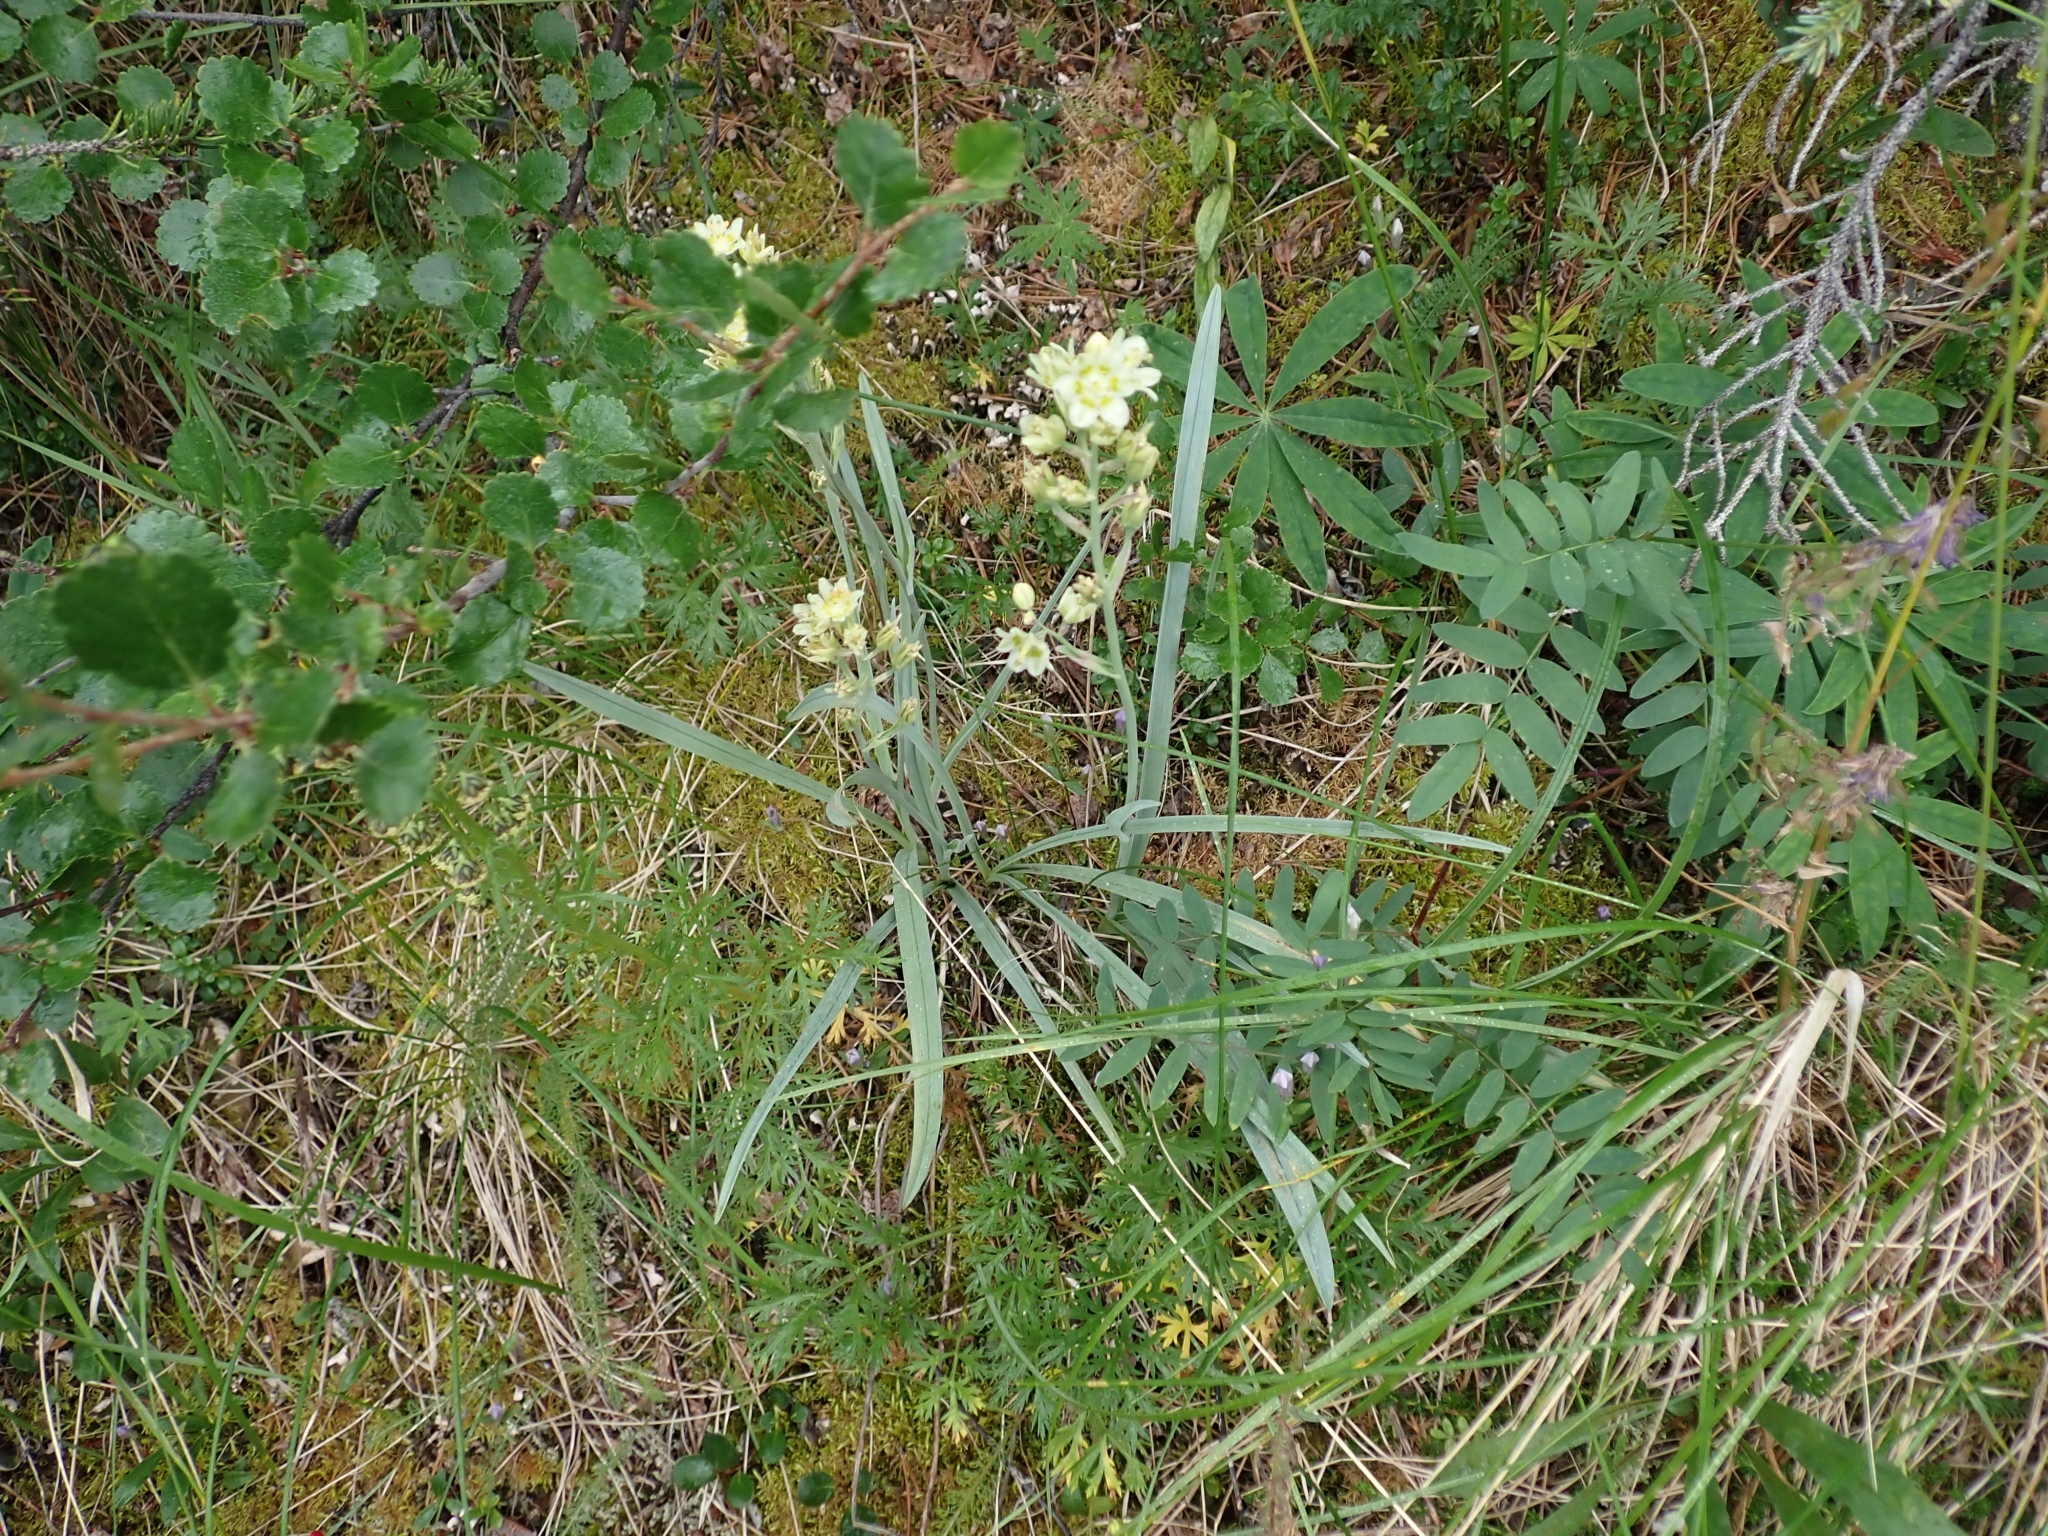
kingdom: Plantae
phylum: Tracheophyta
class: Liliopsida
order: Liliales
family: Melanthiaceae
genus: Anticlea
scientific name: Anticlea elegans
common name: Mountain death camas
